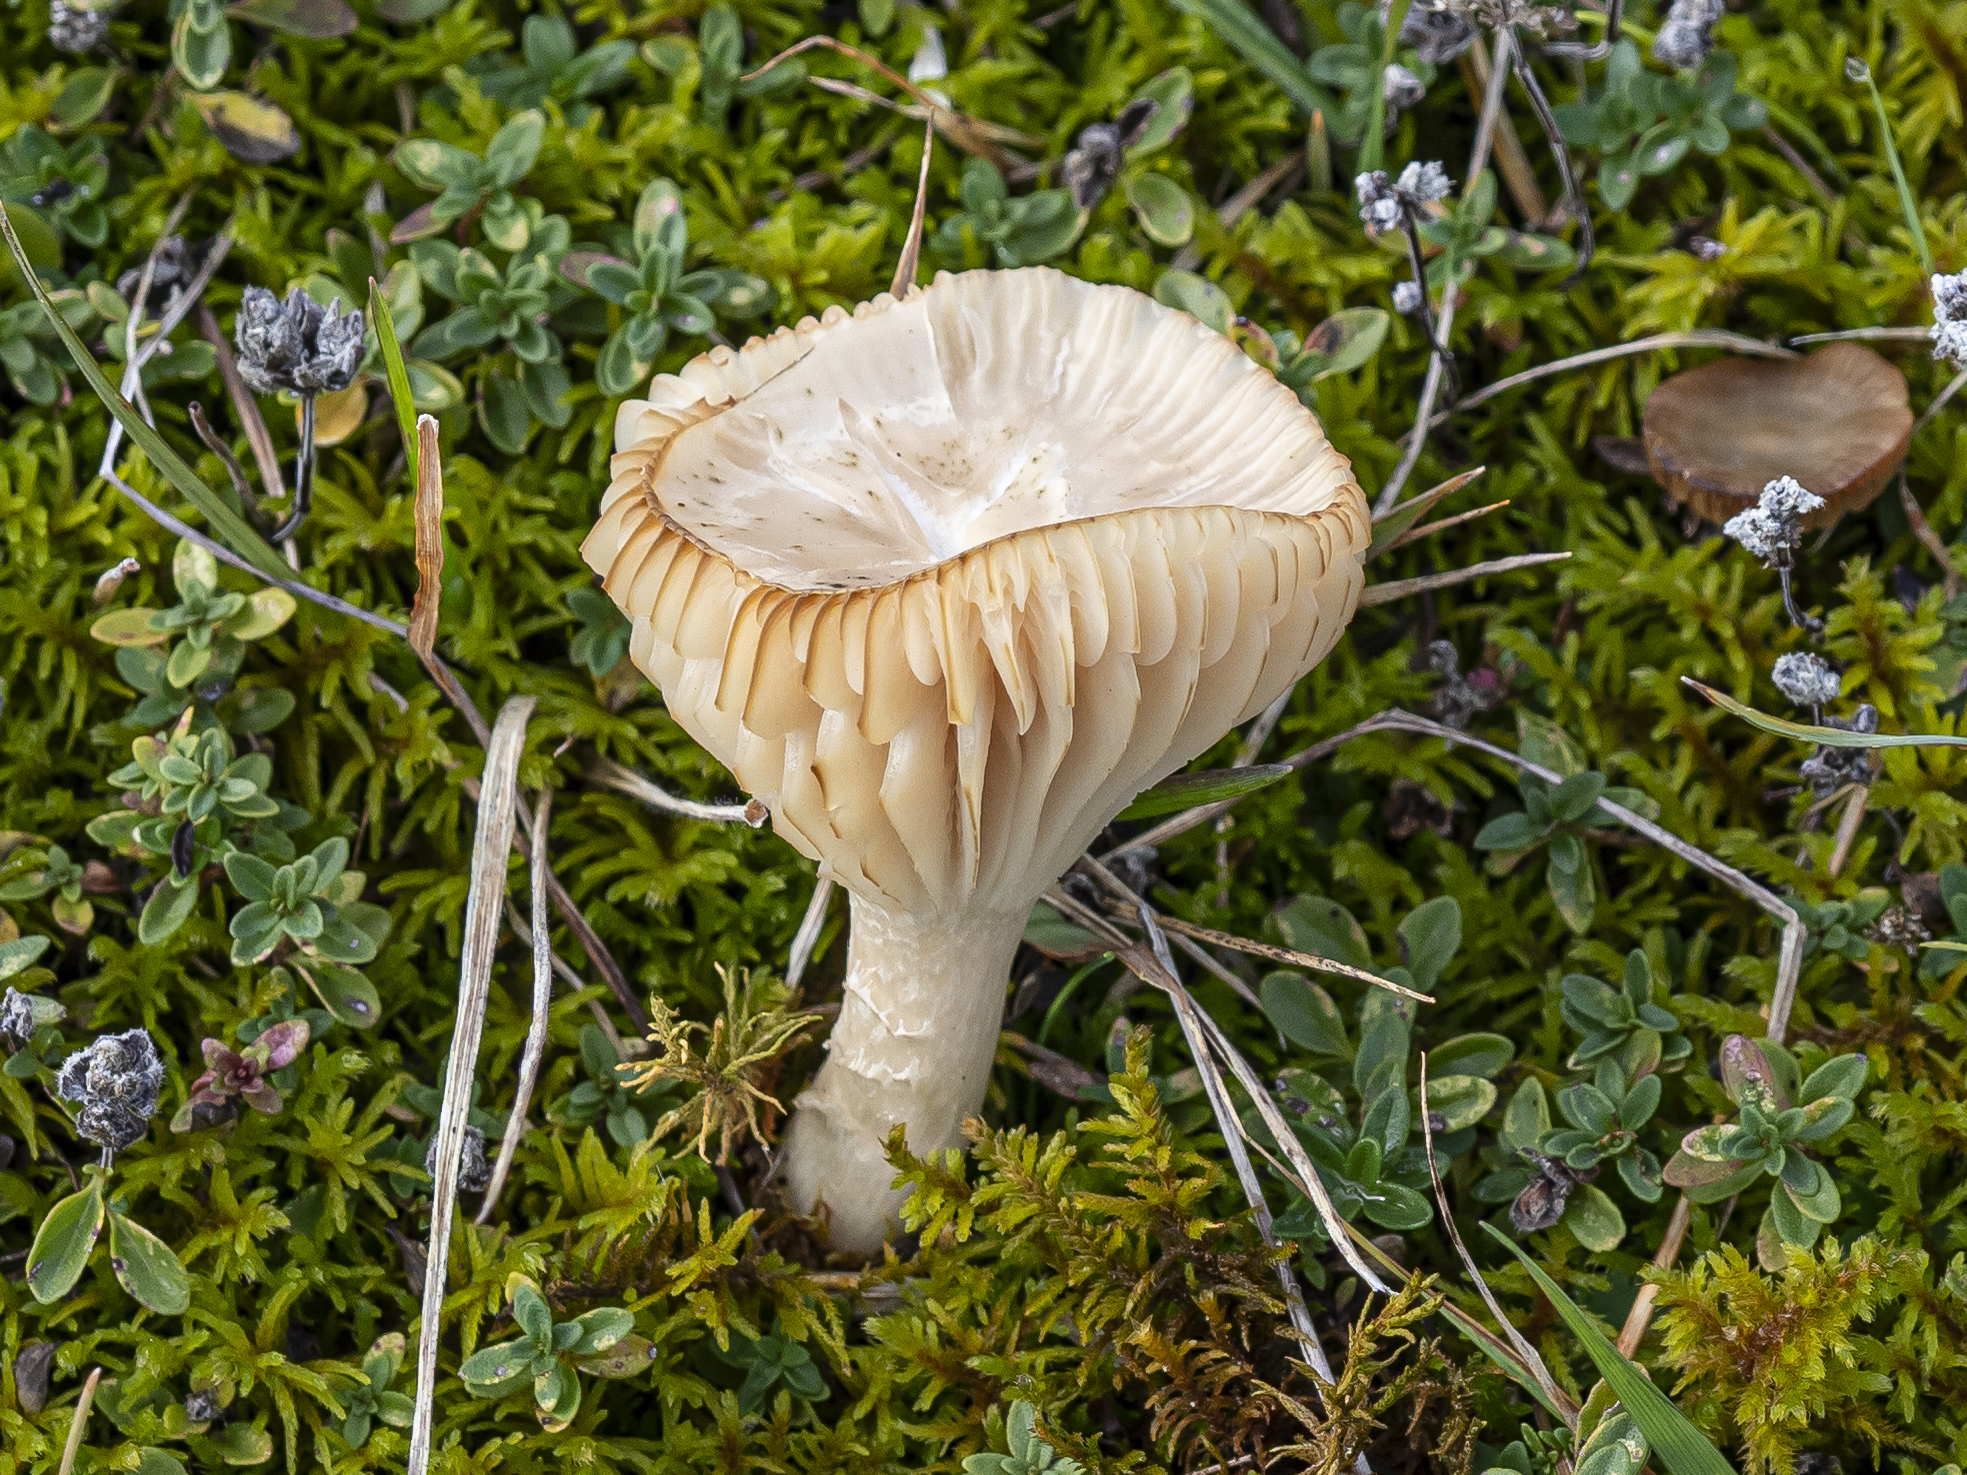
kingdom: Fungi
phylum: Basidiomycota
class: Agaricomycetes
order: Agaricales
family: Hygrophoraceae
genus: Cuphophyllus
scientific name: Cuphophyllus russocoriaceus
